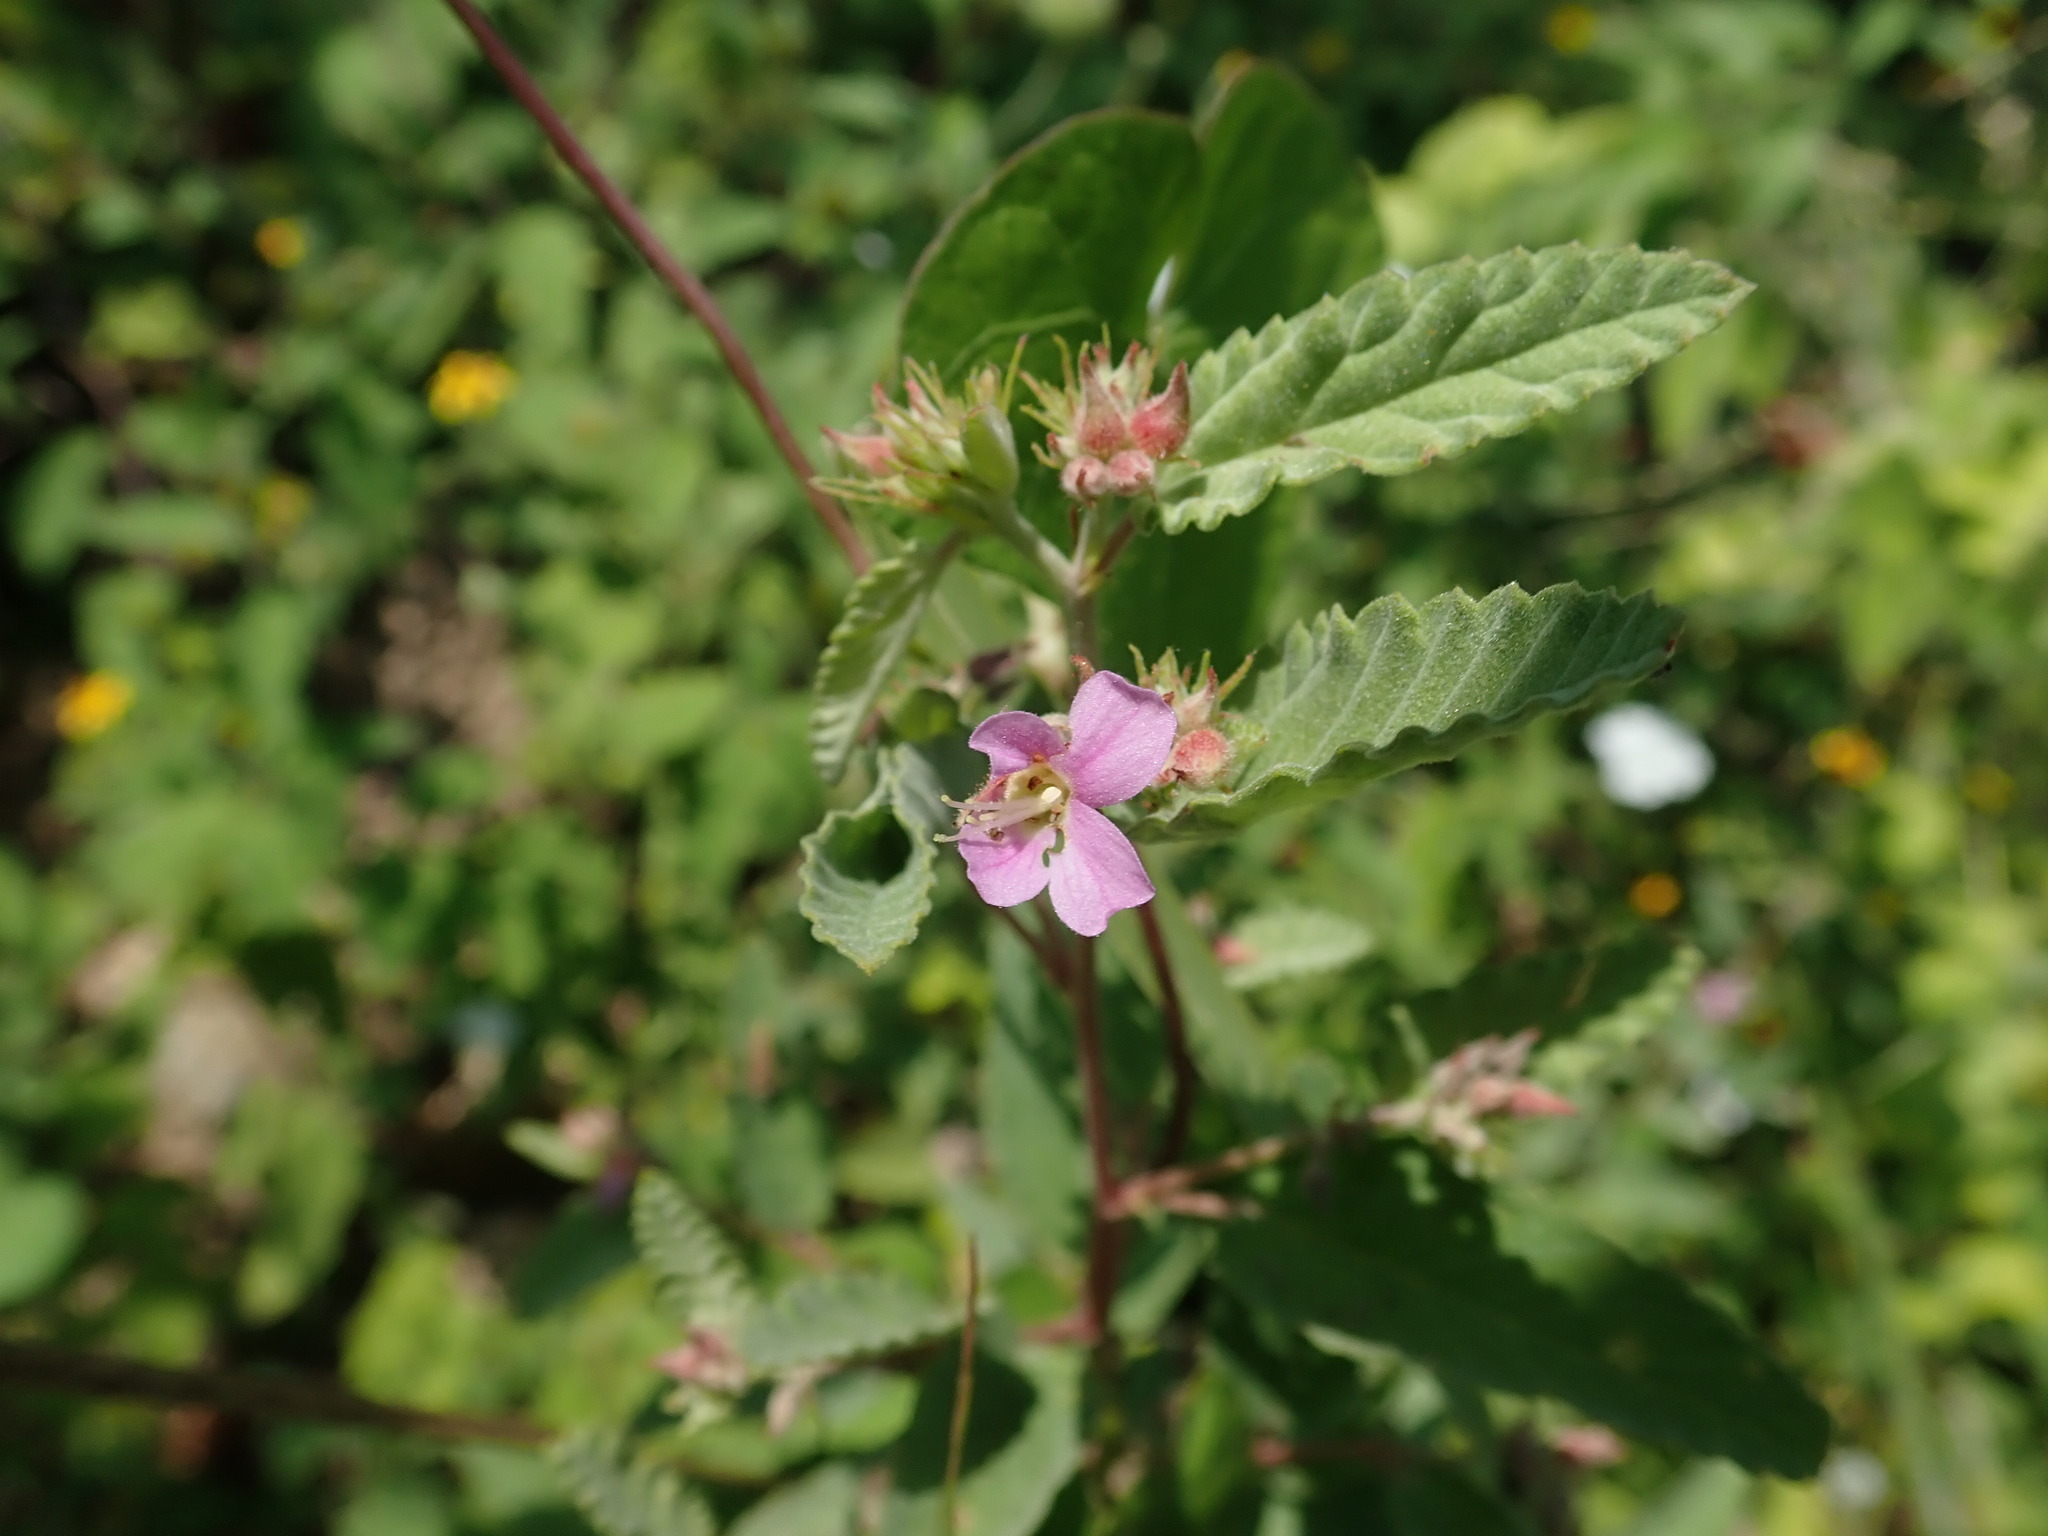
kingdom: Plantae
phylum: Tracheophyta
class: Magnoliopsida
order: Malvales
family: Malvaceae
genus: Melochia
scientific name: Melochia tomentosa
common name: Black torch
